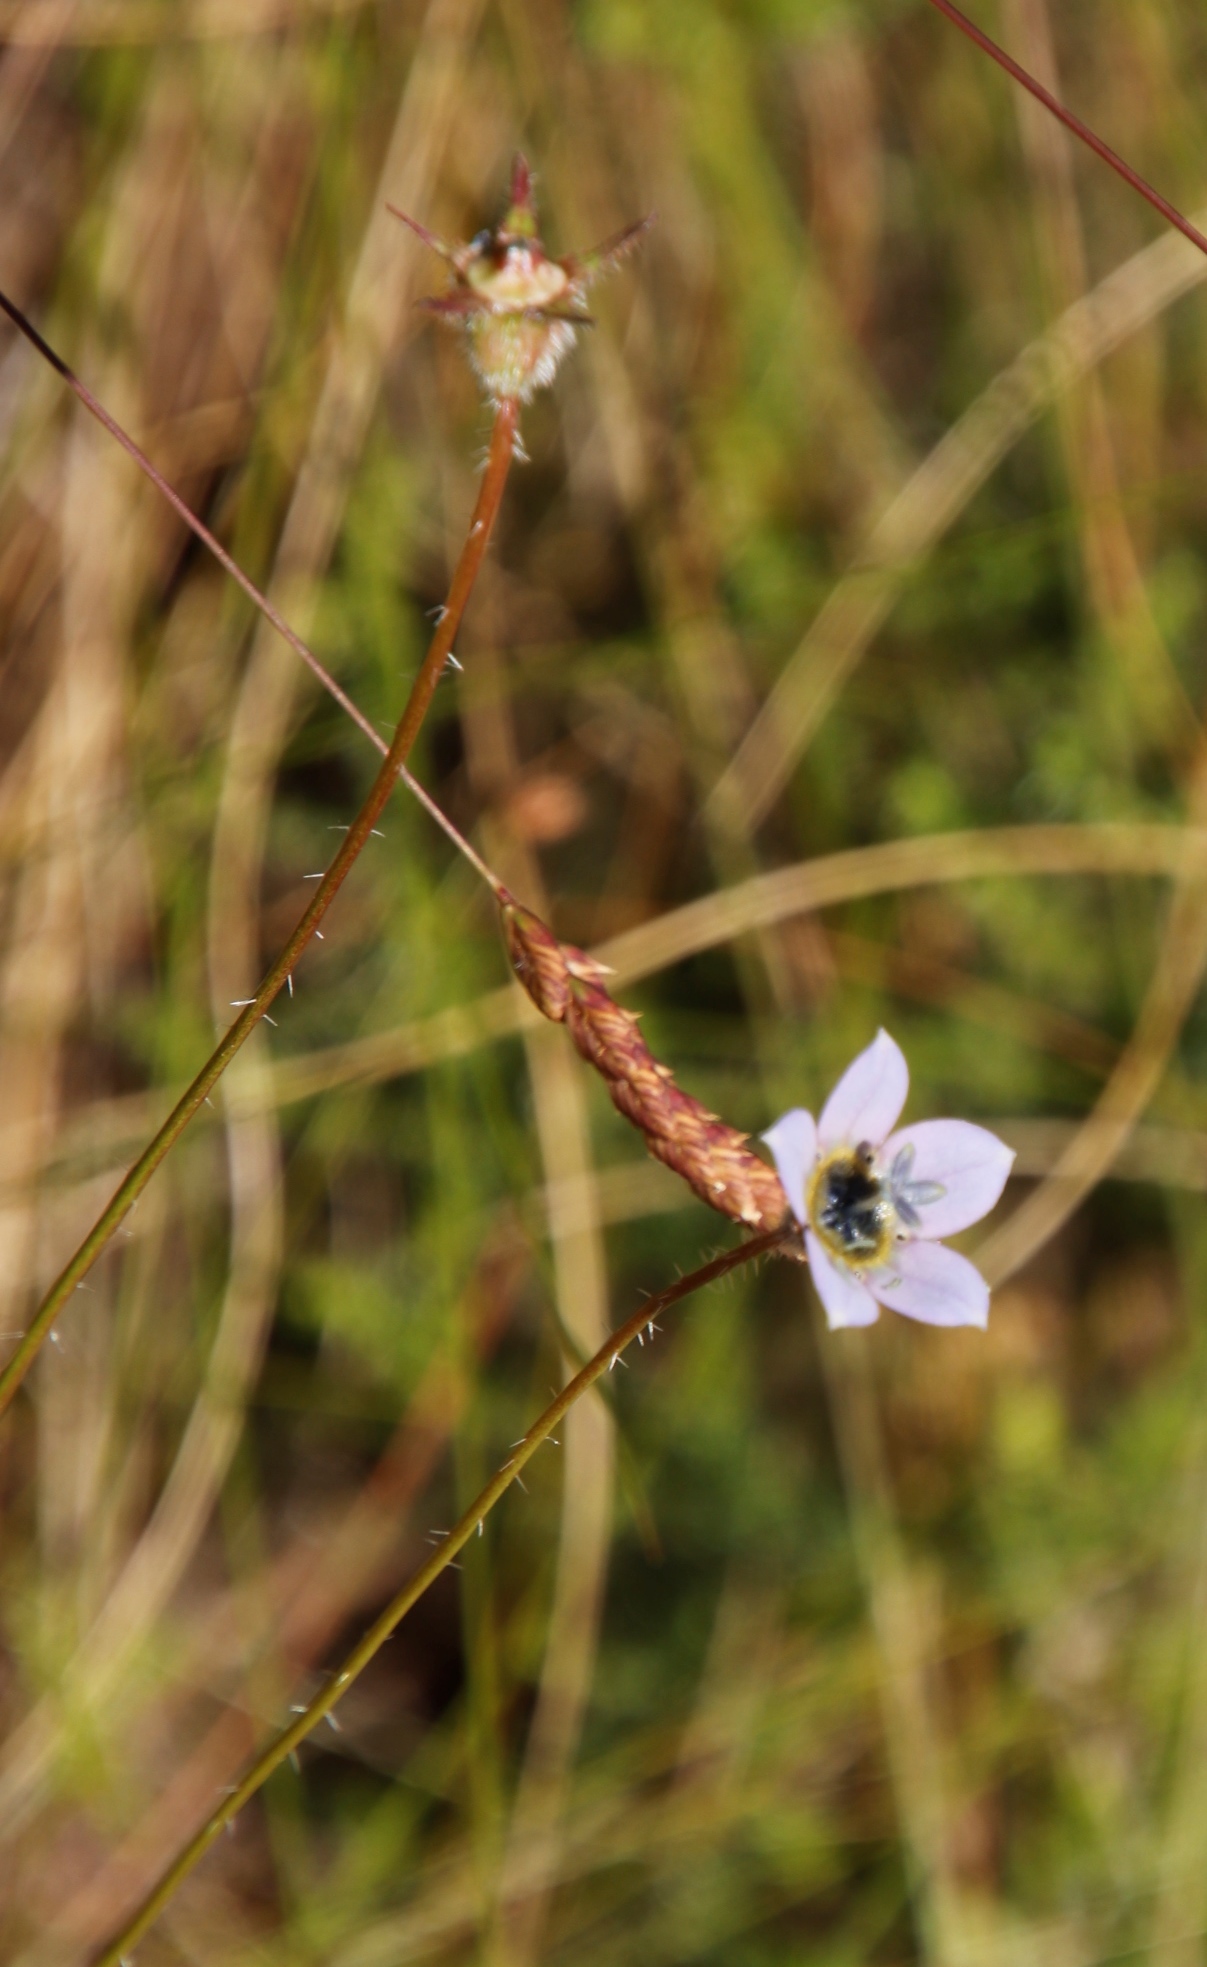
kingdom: Plantae
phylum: Tracheophyta
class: Magnoliopsida
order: Asterales
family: Campanulaceae
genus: Wahlenbergia
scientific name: Wahlenbergia capensis
